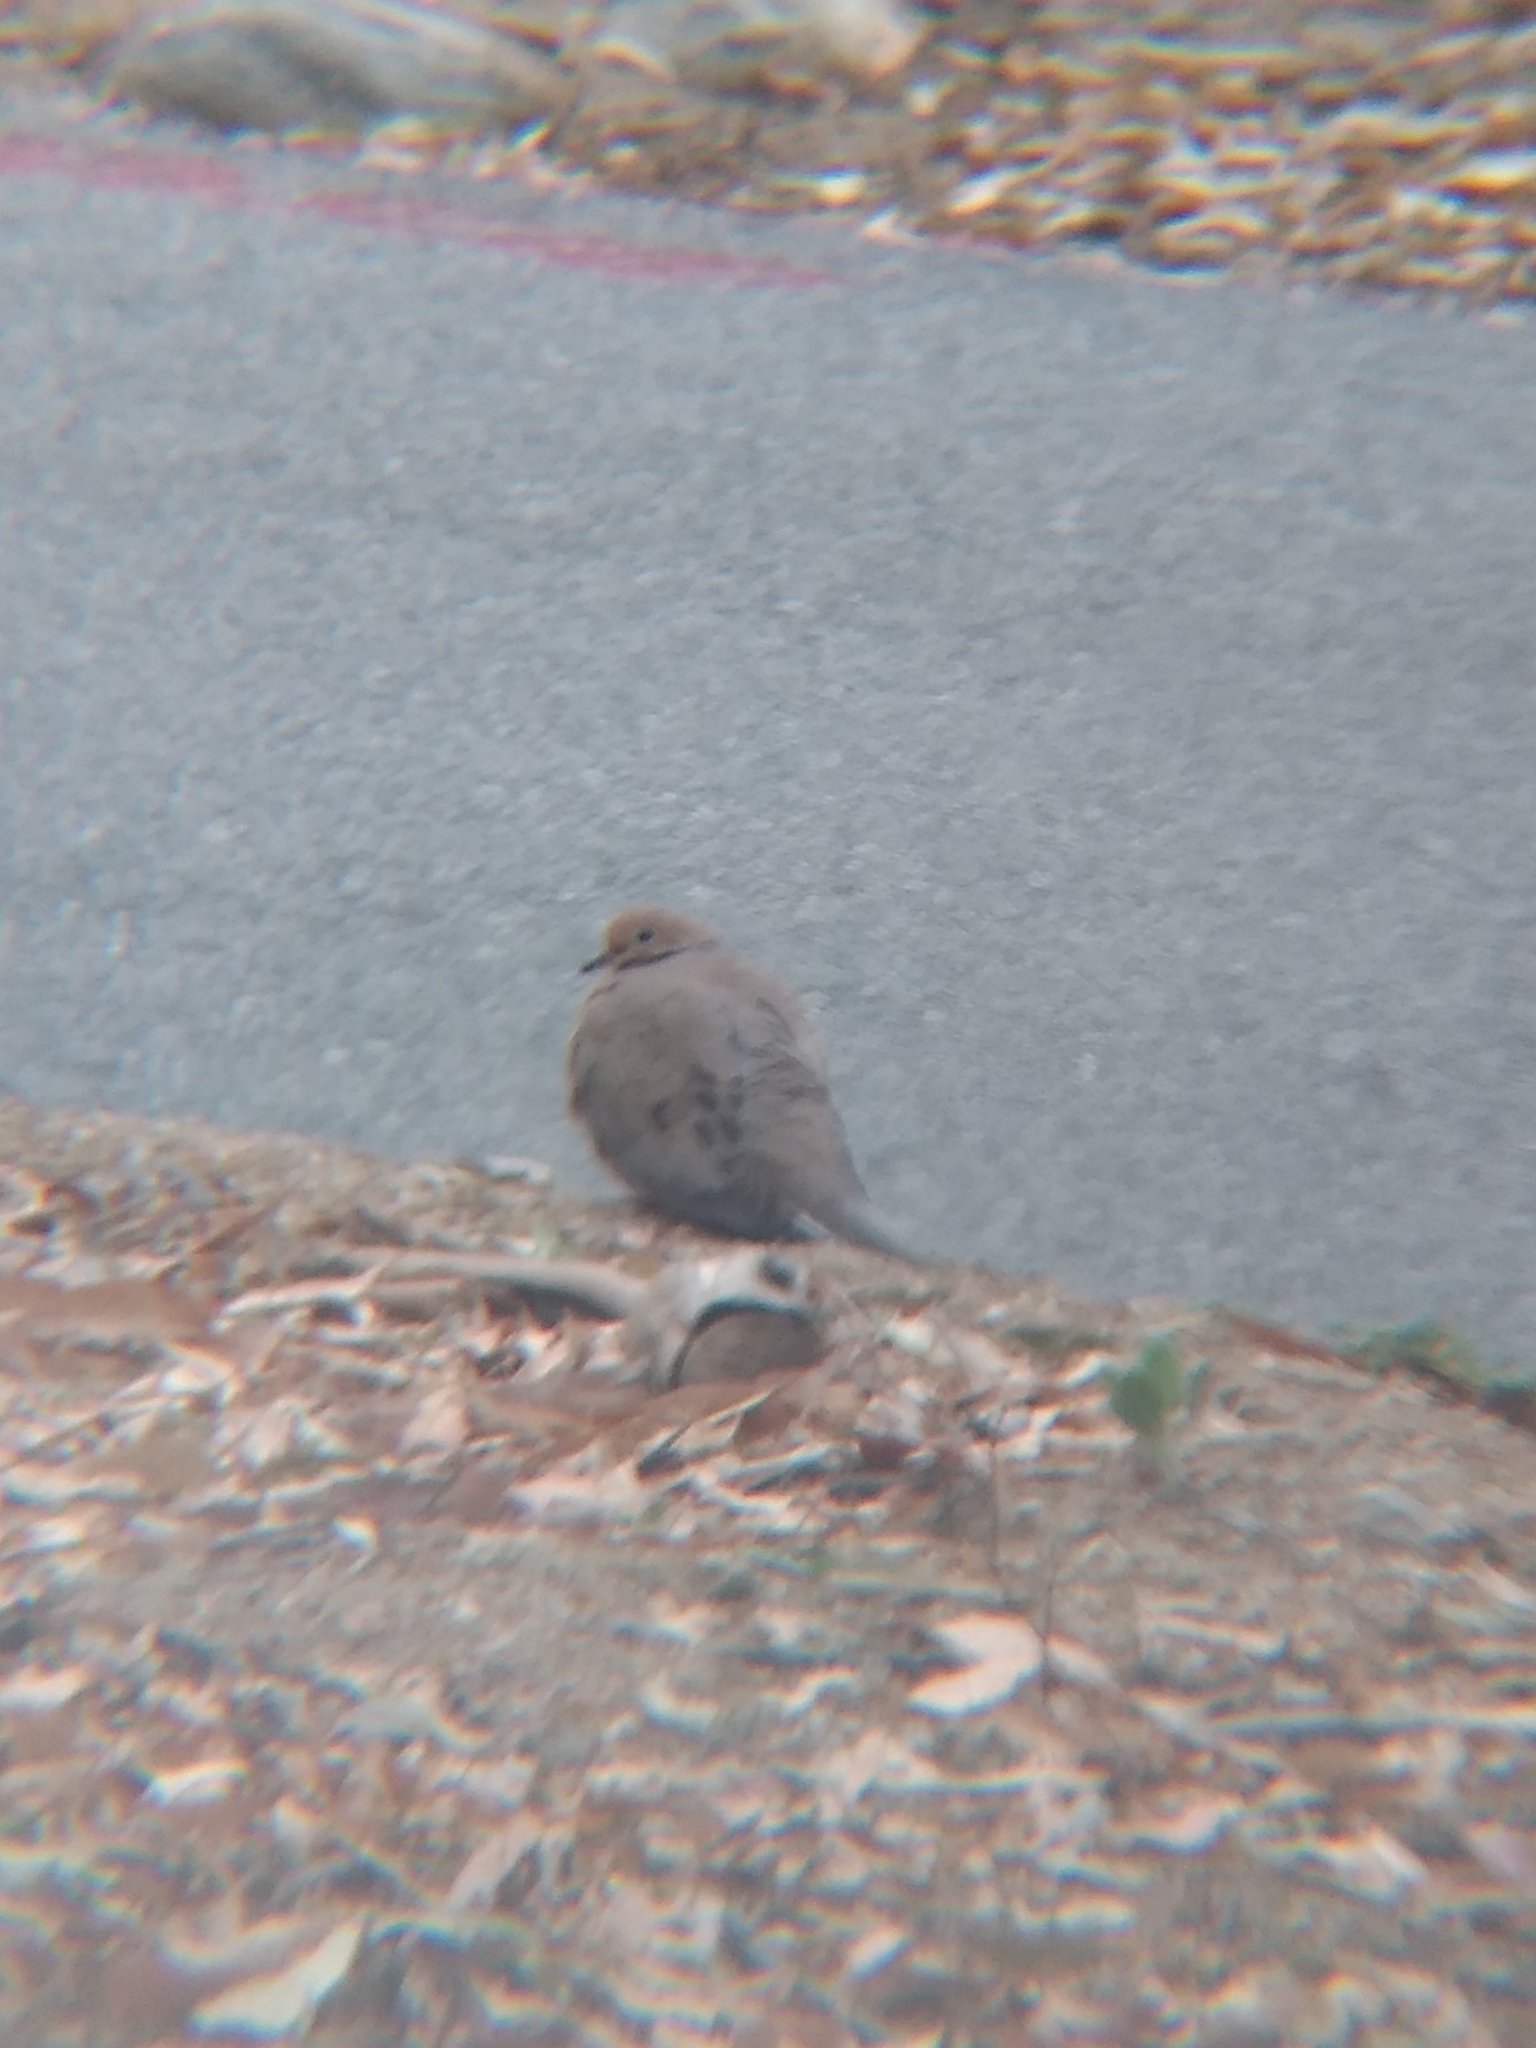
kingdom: Animalia
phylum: Chordata
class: Aves
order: Columbiformes
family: Columbidae
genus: Zenaida
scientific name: Zenaida macroura
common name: Mourning dove
